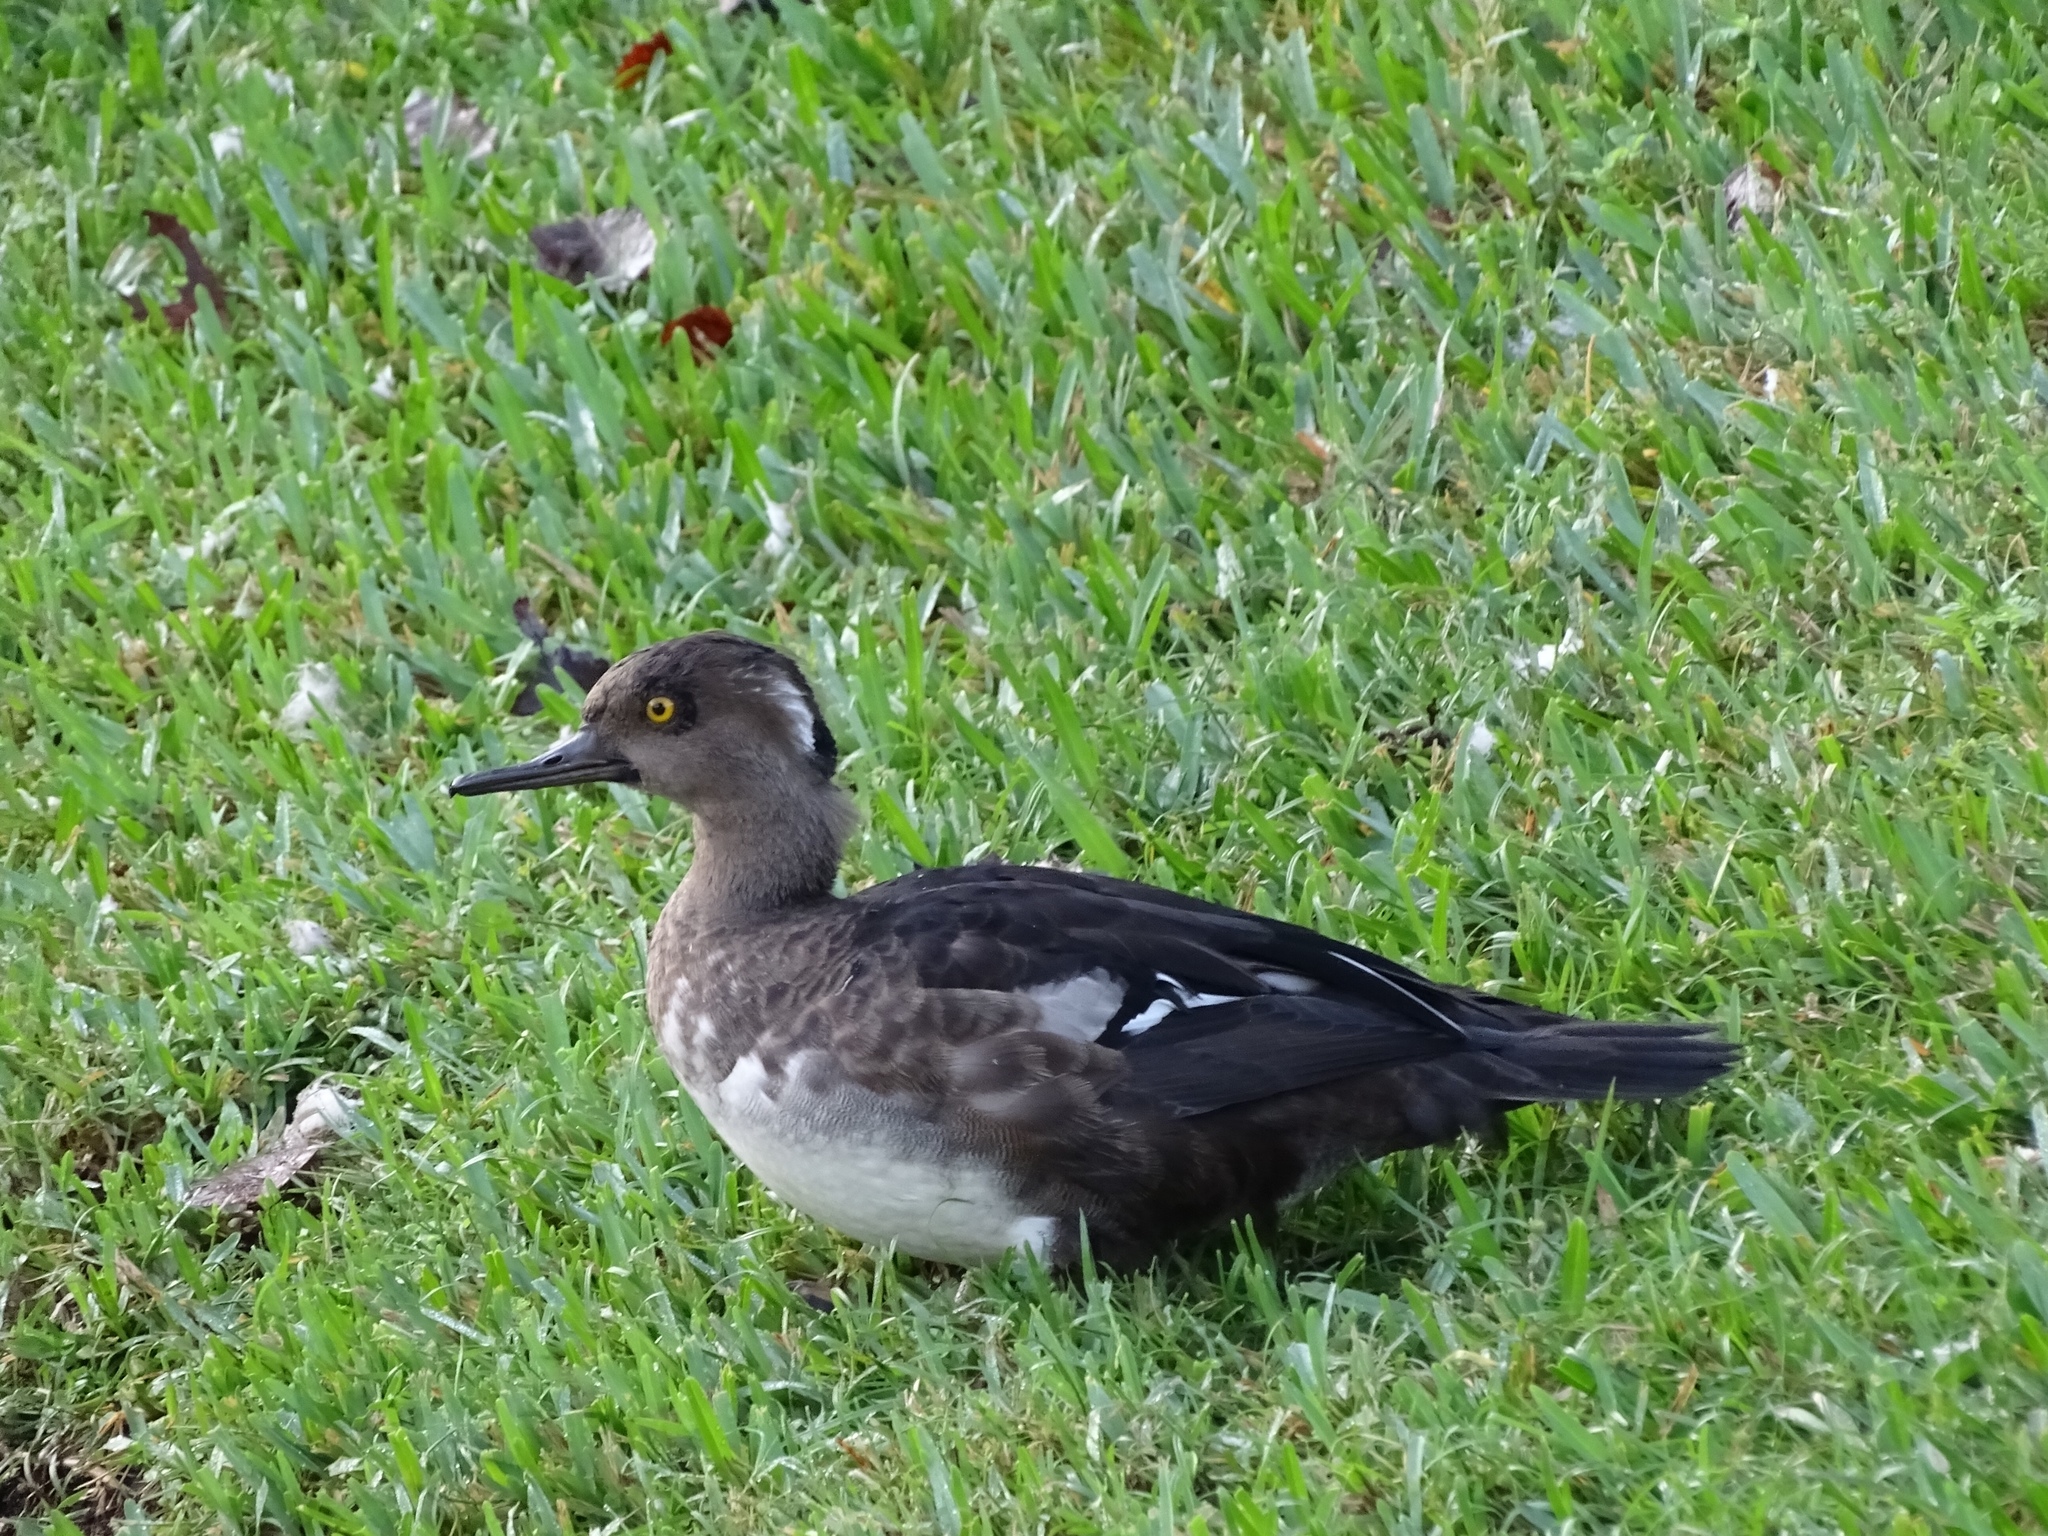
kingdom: Animalia
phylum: Chordata
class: Aves
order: Anseriformes
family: Anatidae
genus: Lophodytes
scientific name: Lophodytes cucullatus
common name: Hooded merganser
